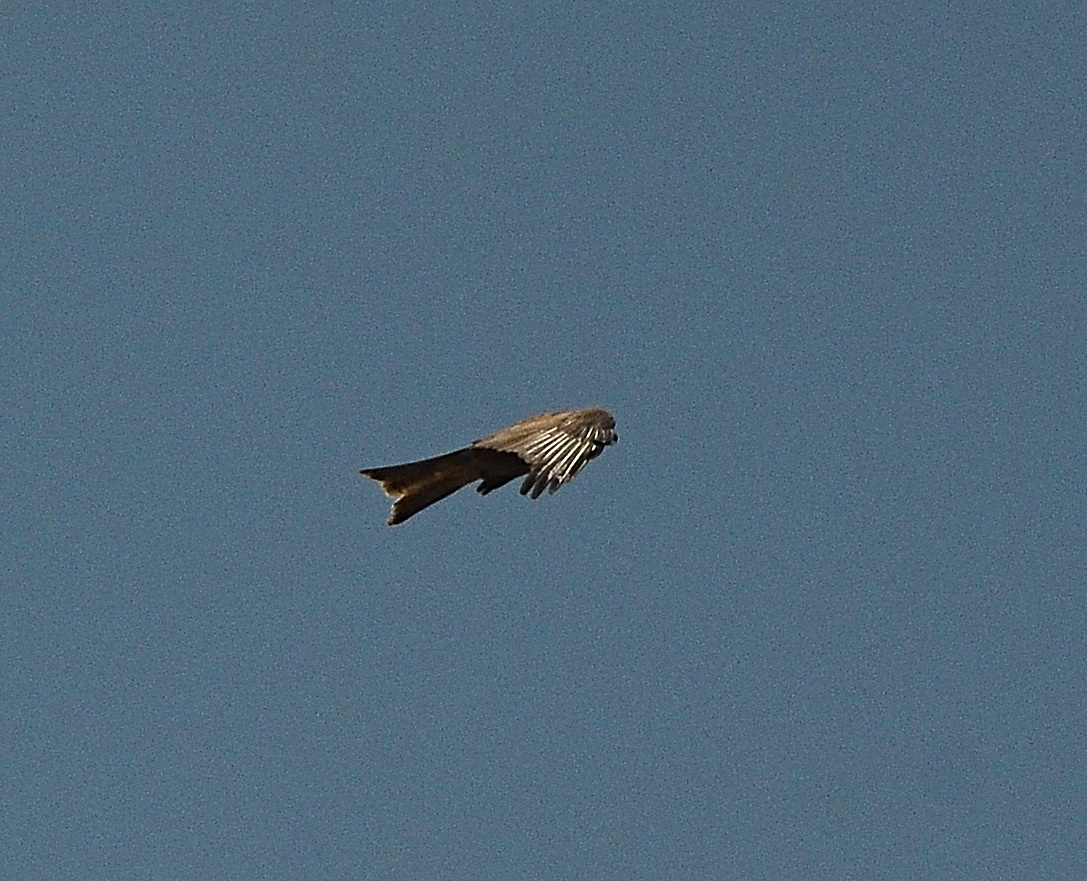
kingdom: Animalia
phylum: Chordata
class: Aves
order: Accipitriformes
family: Accipitridae
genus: Milvus
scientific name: Milvus migrans
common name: Black kite
